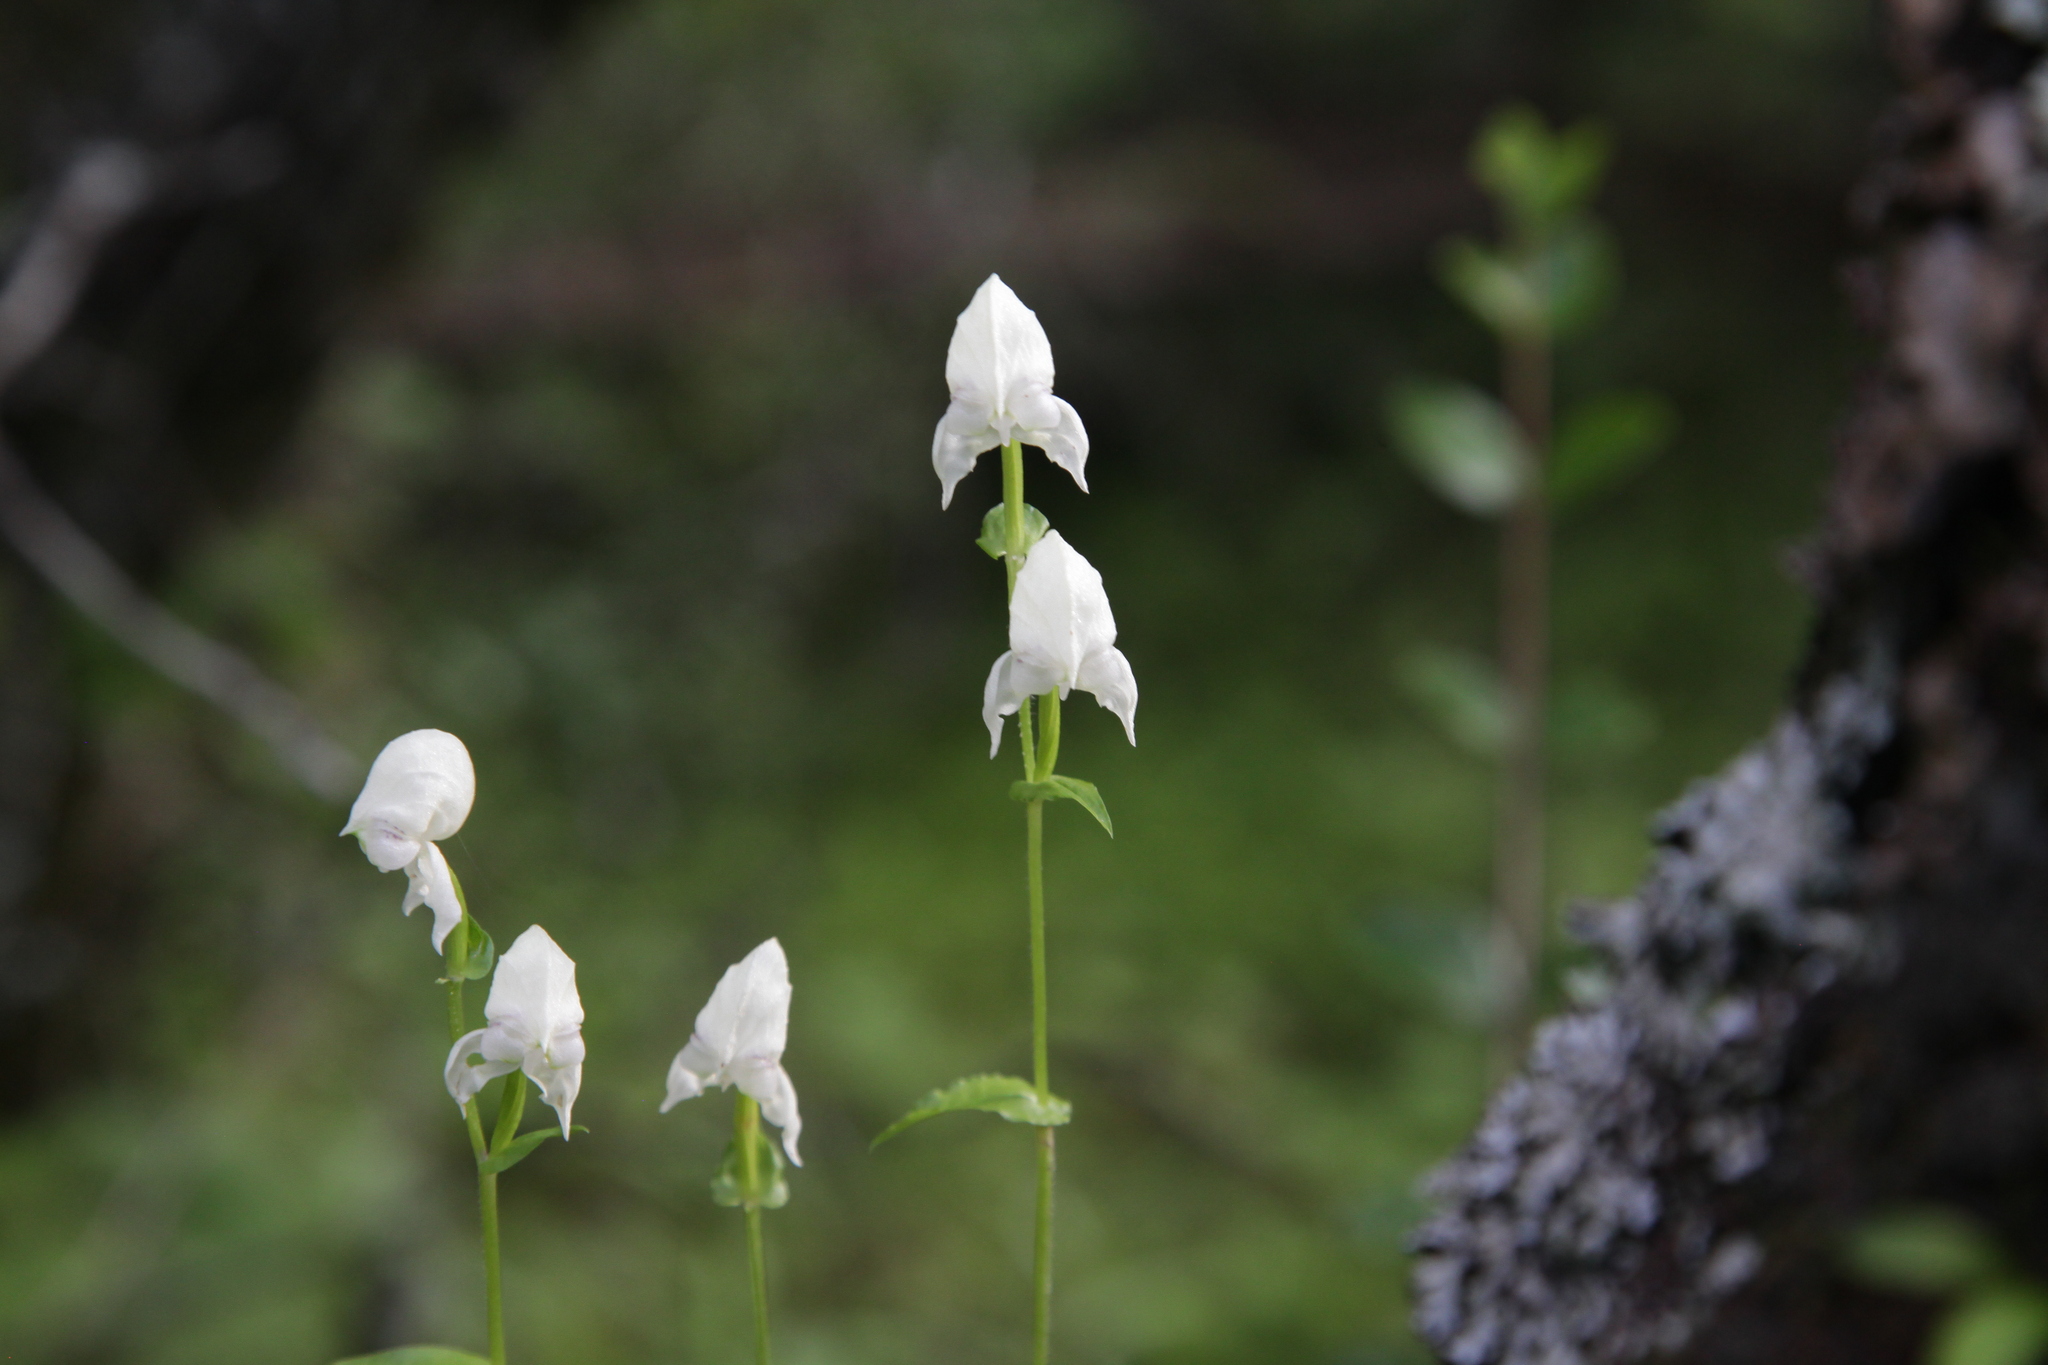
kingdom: Plantae
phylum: Tracheophyta
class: Liliopsida
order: Asparagales
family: Orchidaceae
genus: Disperis
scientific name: Disperis fanniniae
